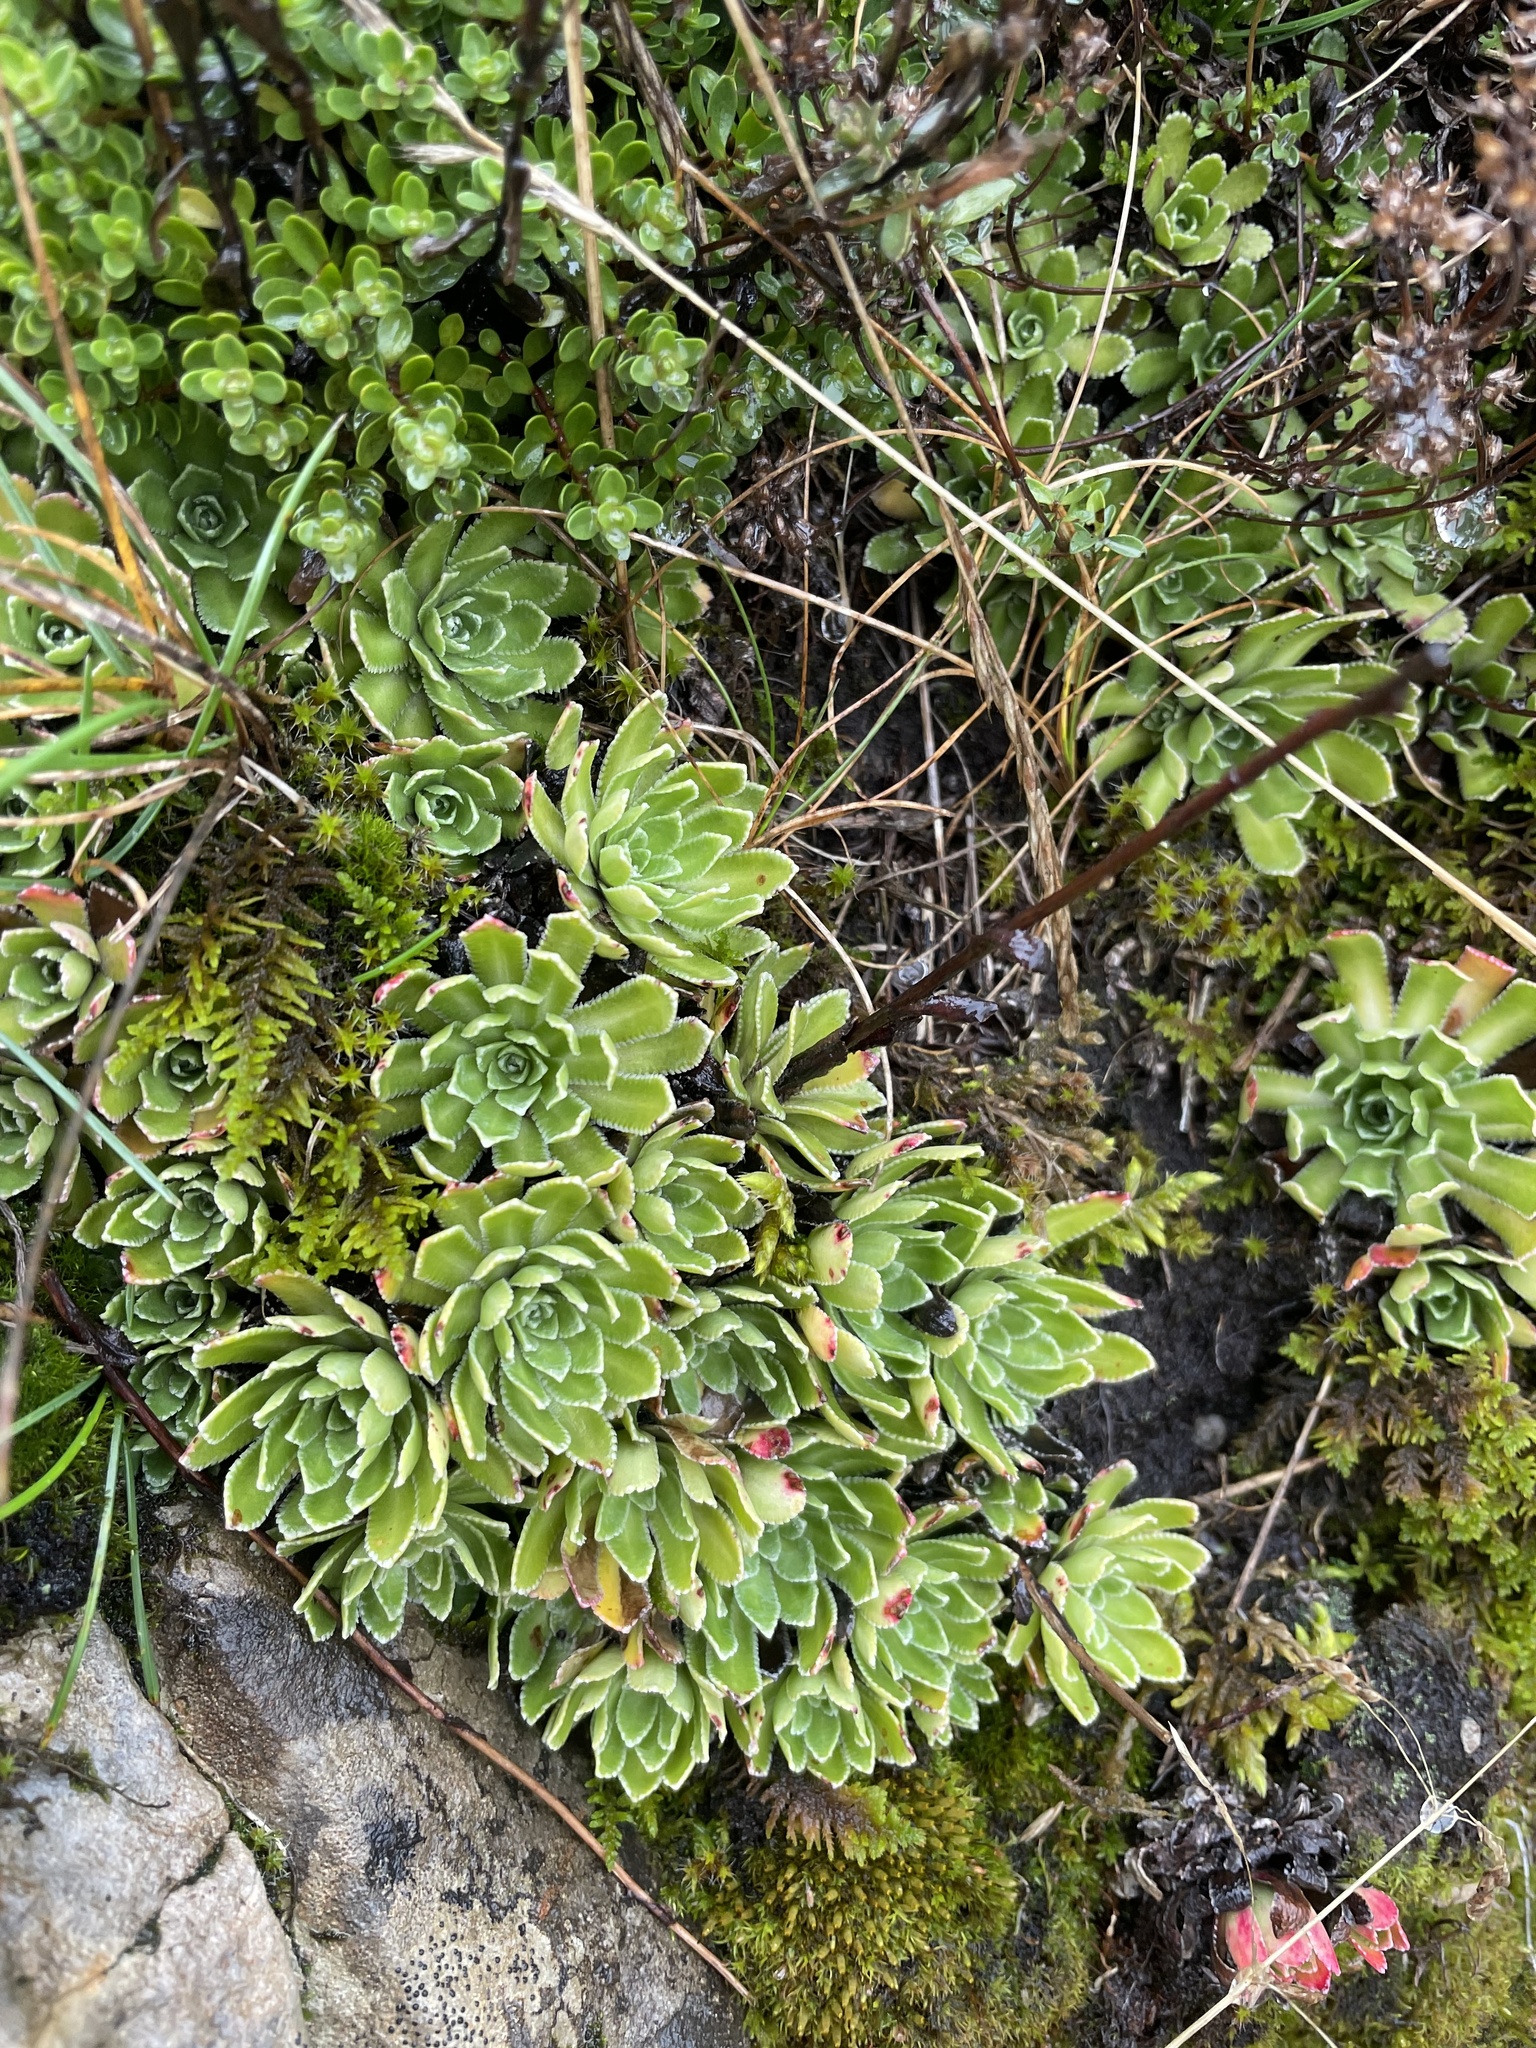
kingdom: Plantae
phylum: Tracheophyta
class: Magnoliopsida
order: Saxifragales
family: Saxifragaceae
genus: Saxifraga
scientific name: Saxifraga paniculata
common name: Livelong saxifrage
